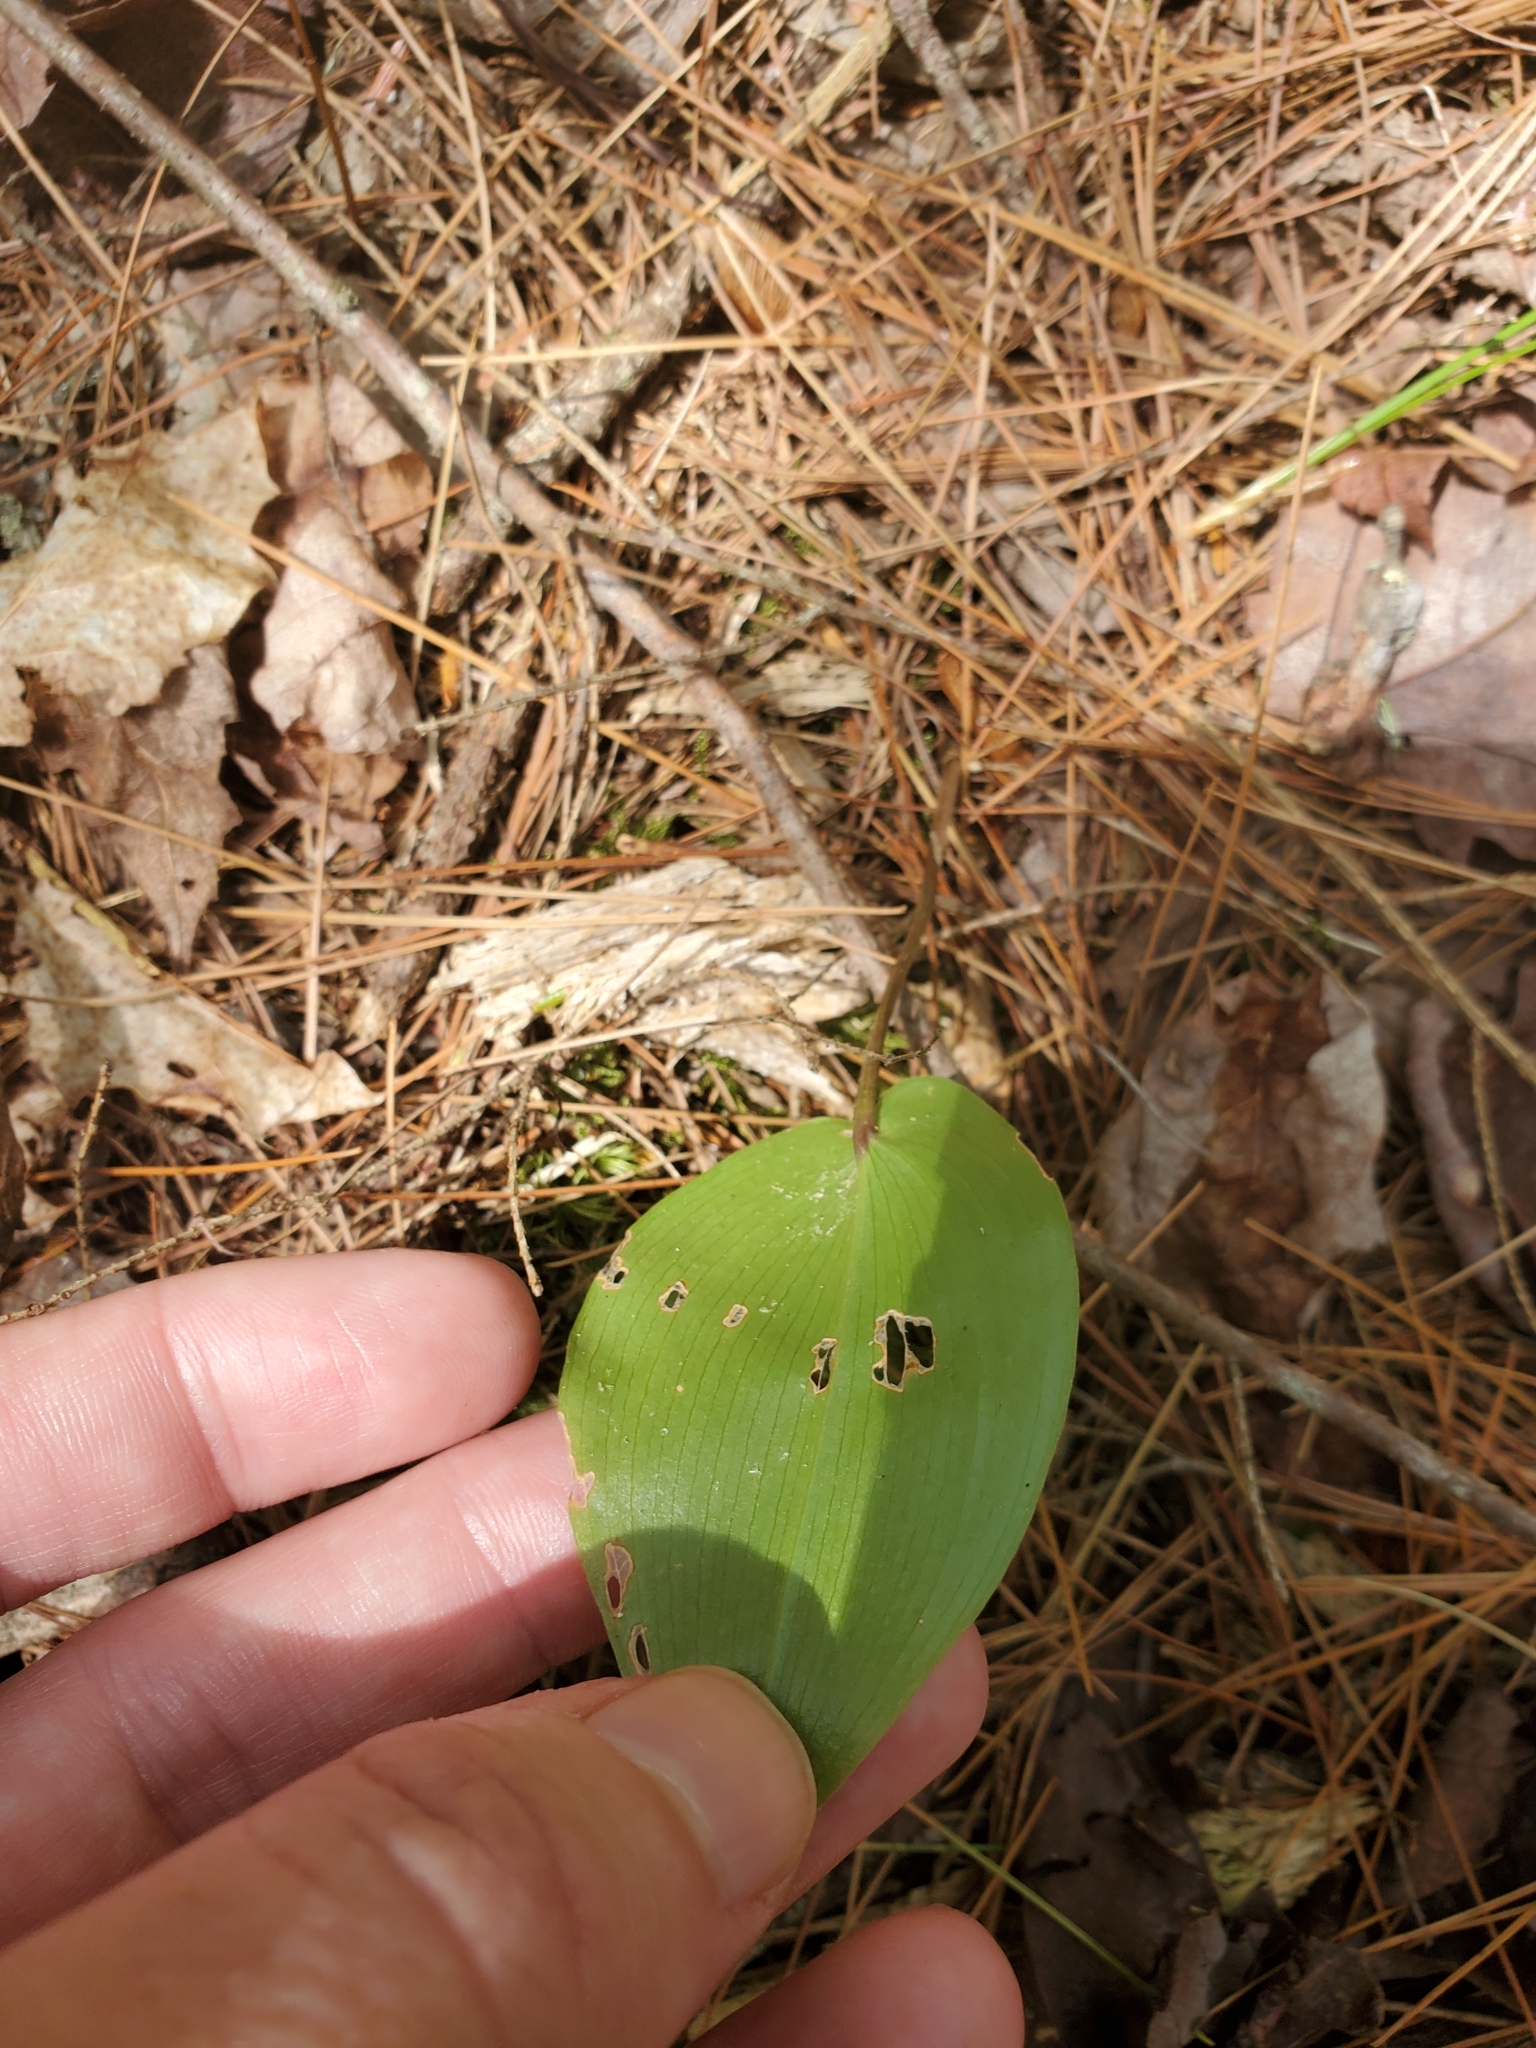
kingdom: Plantae
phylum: Tracheophyta
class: Liliopsida
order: Asparagales
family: Asparagaceae
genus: Maianthemum
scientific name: Maianthemum canadense
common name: False lily-of-the-valley
